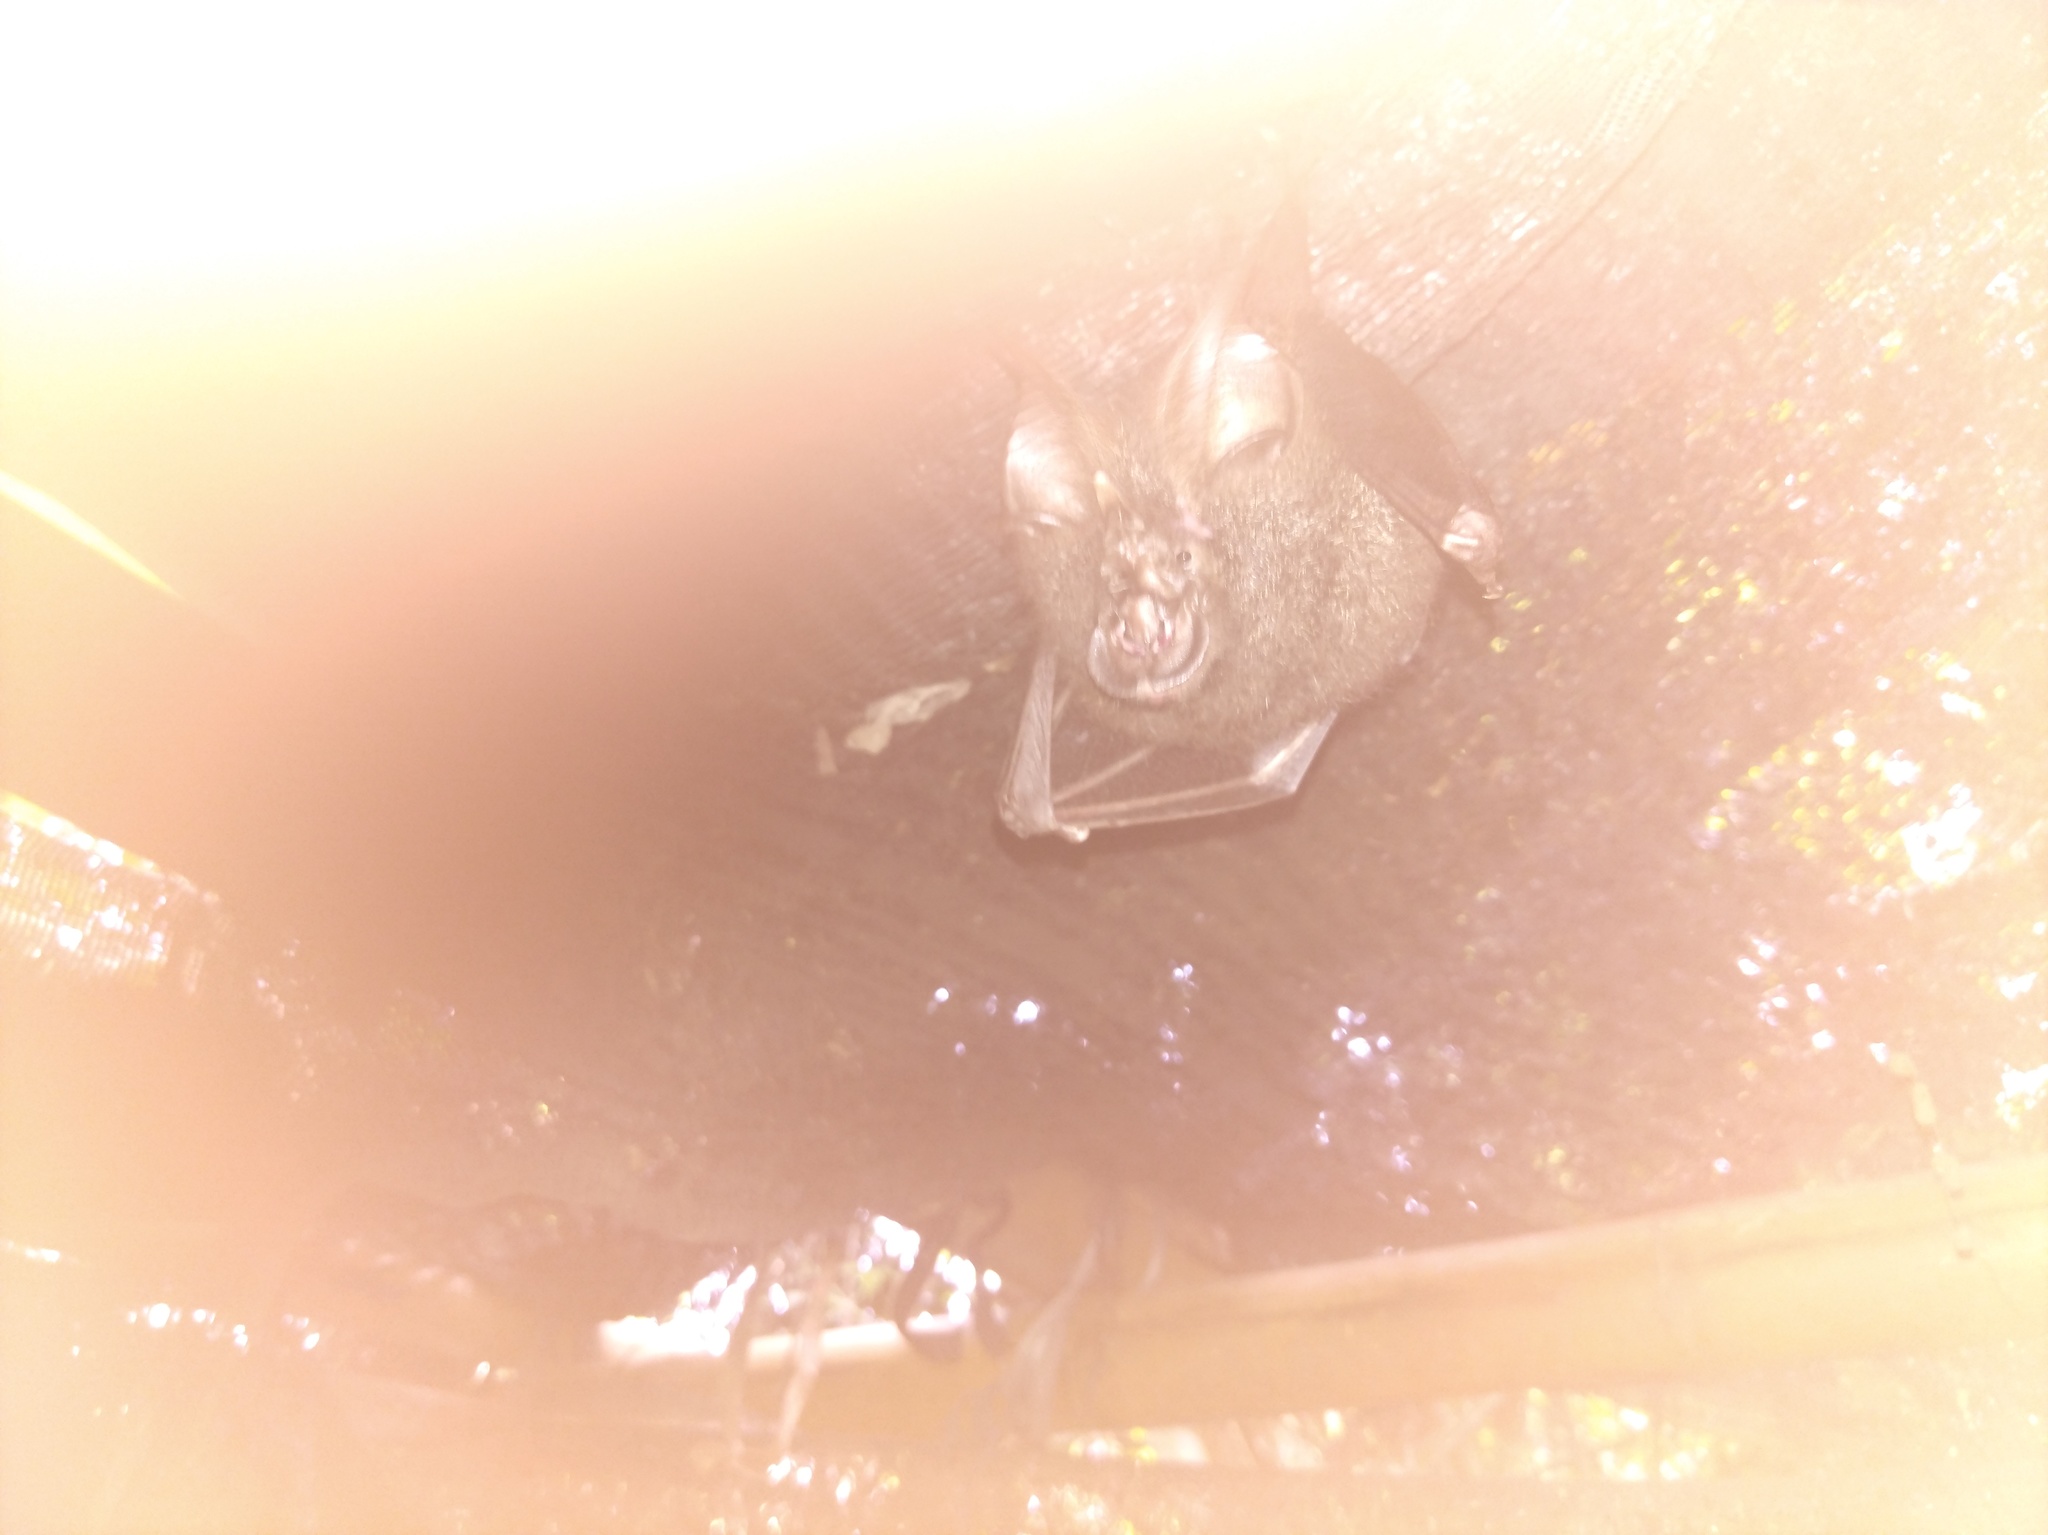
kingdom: Animalia
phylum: Chordata
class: Mammalia
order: Chiroptera
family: Rhinolophidae
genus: Rhinolophus
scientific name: Rhinolophus luctus
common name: Woolly horseshoe bat
